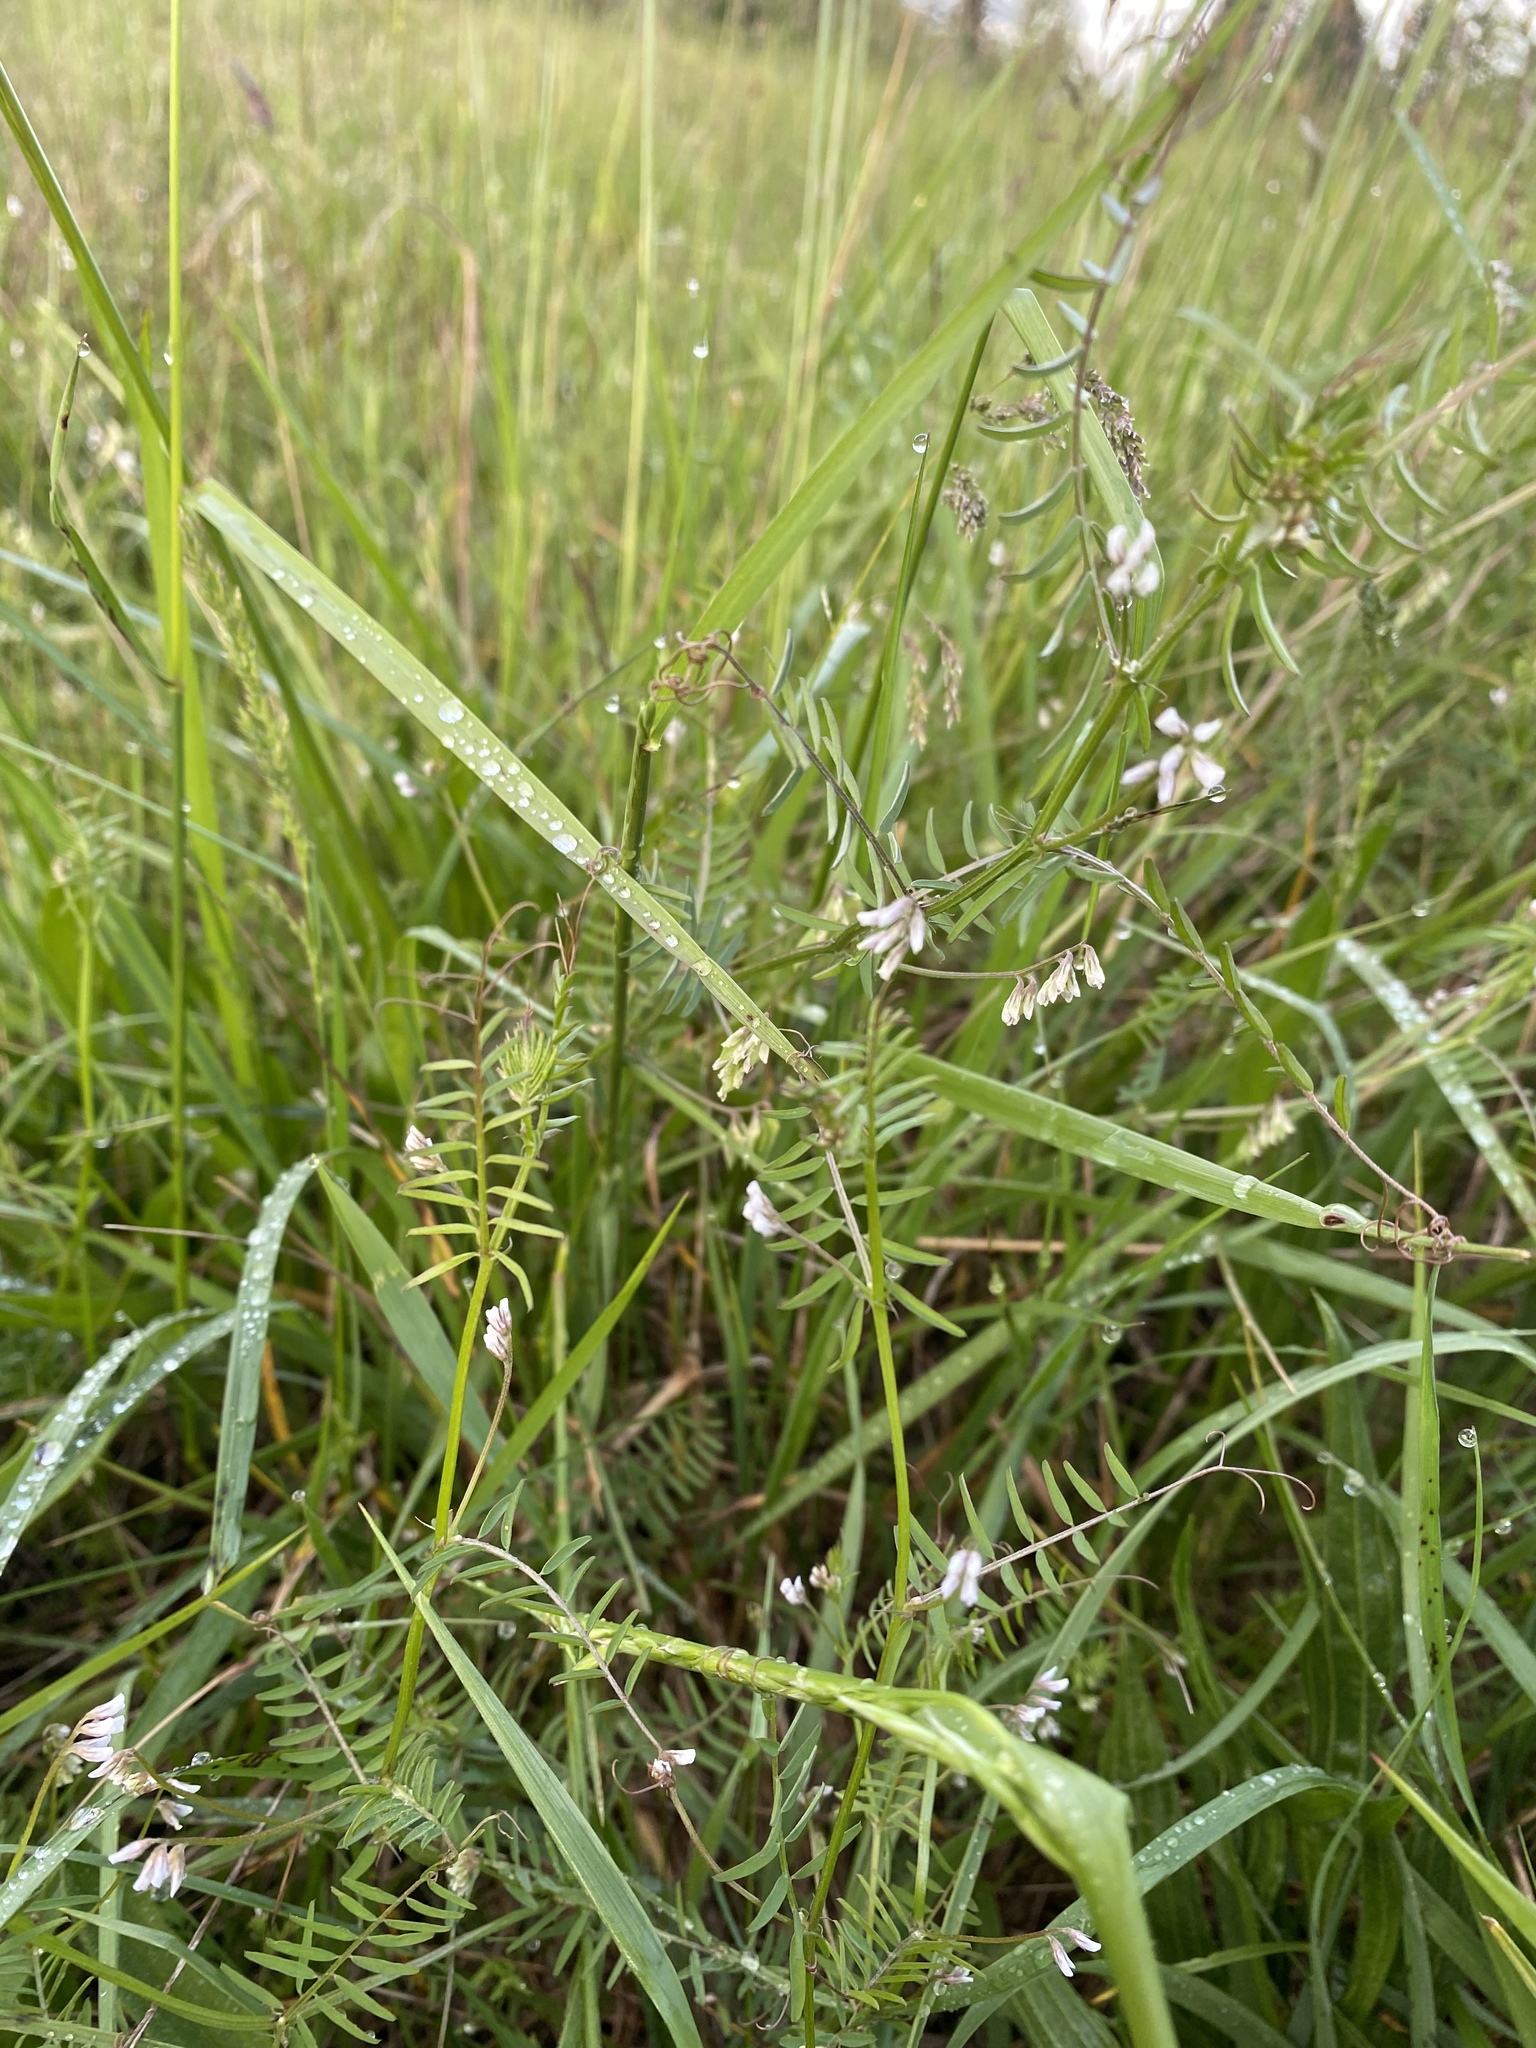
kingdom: Plantae
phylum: Tracheophyta
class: Magnoliopsida
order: Fabales
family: Fabaceae
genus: Vicia
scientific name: Vicia hirsuta
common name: Tiny vetch
